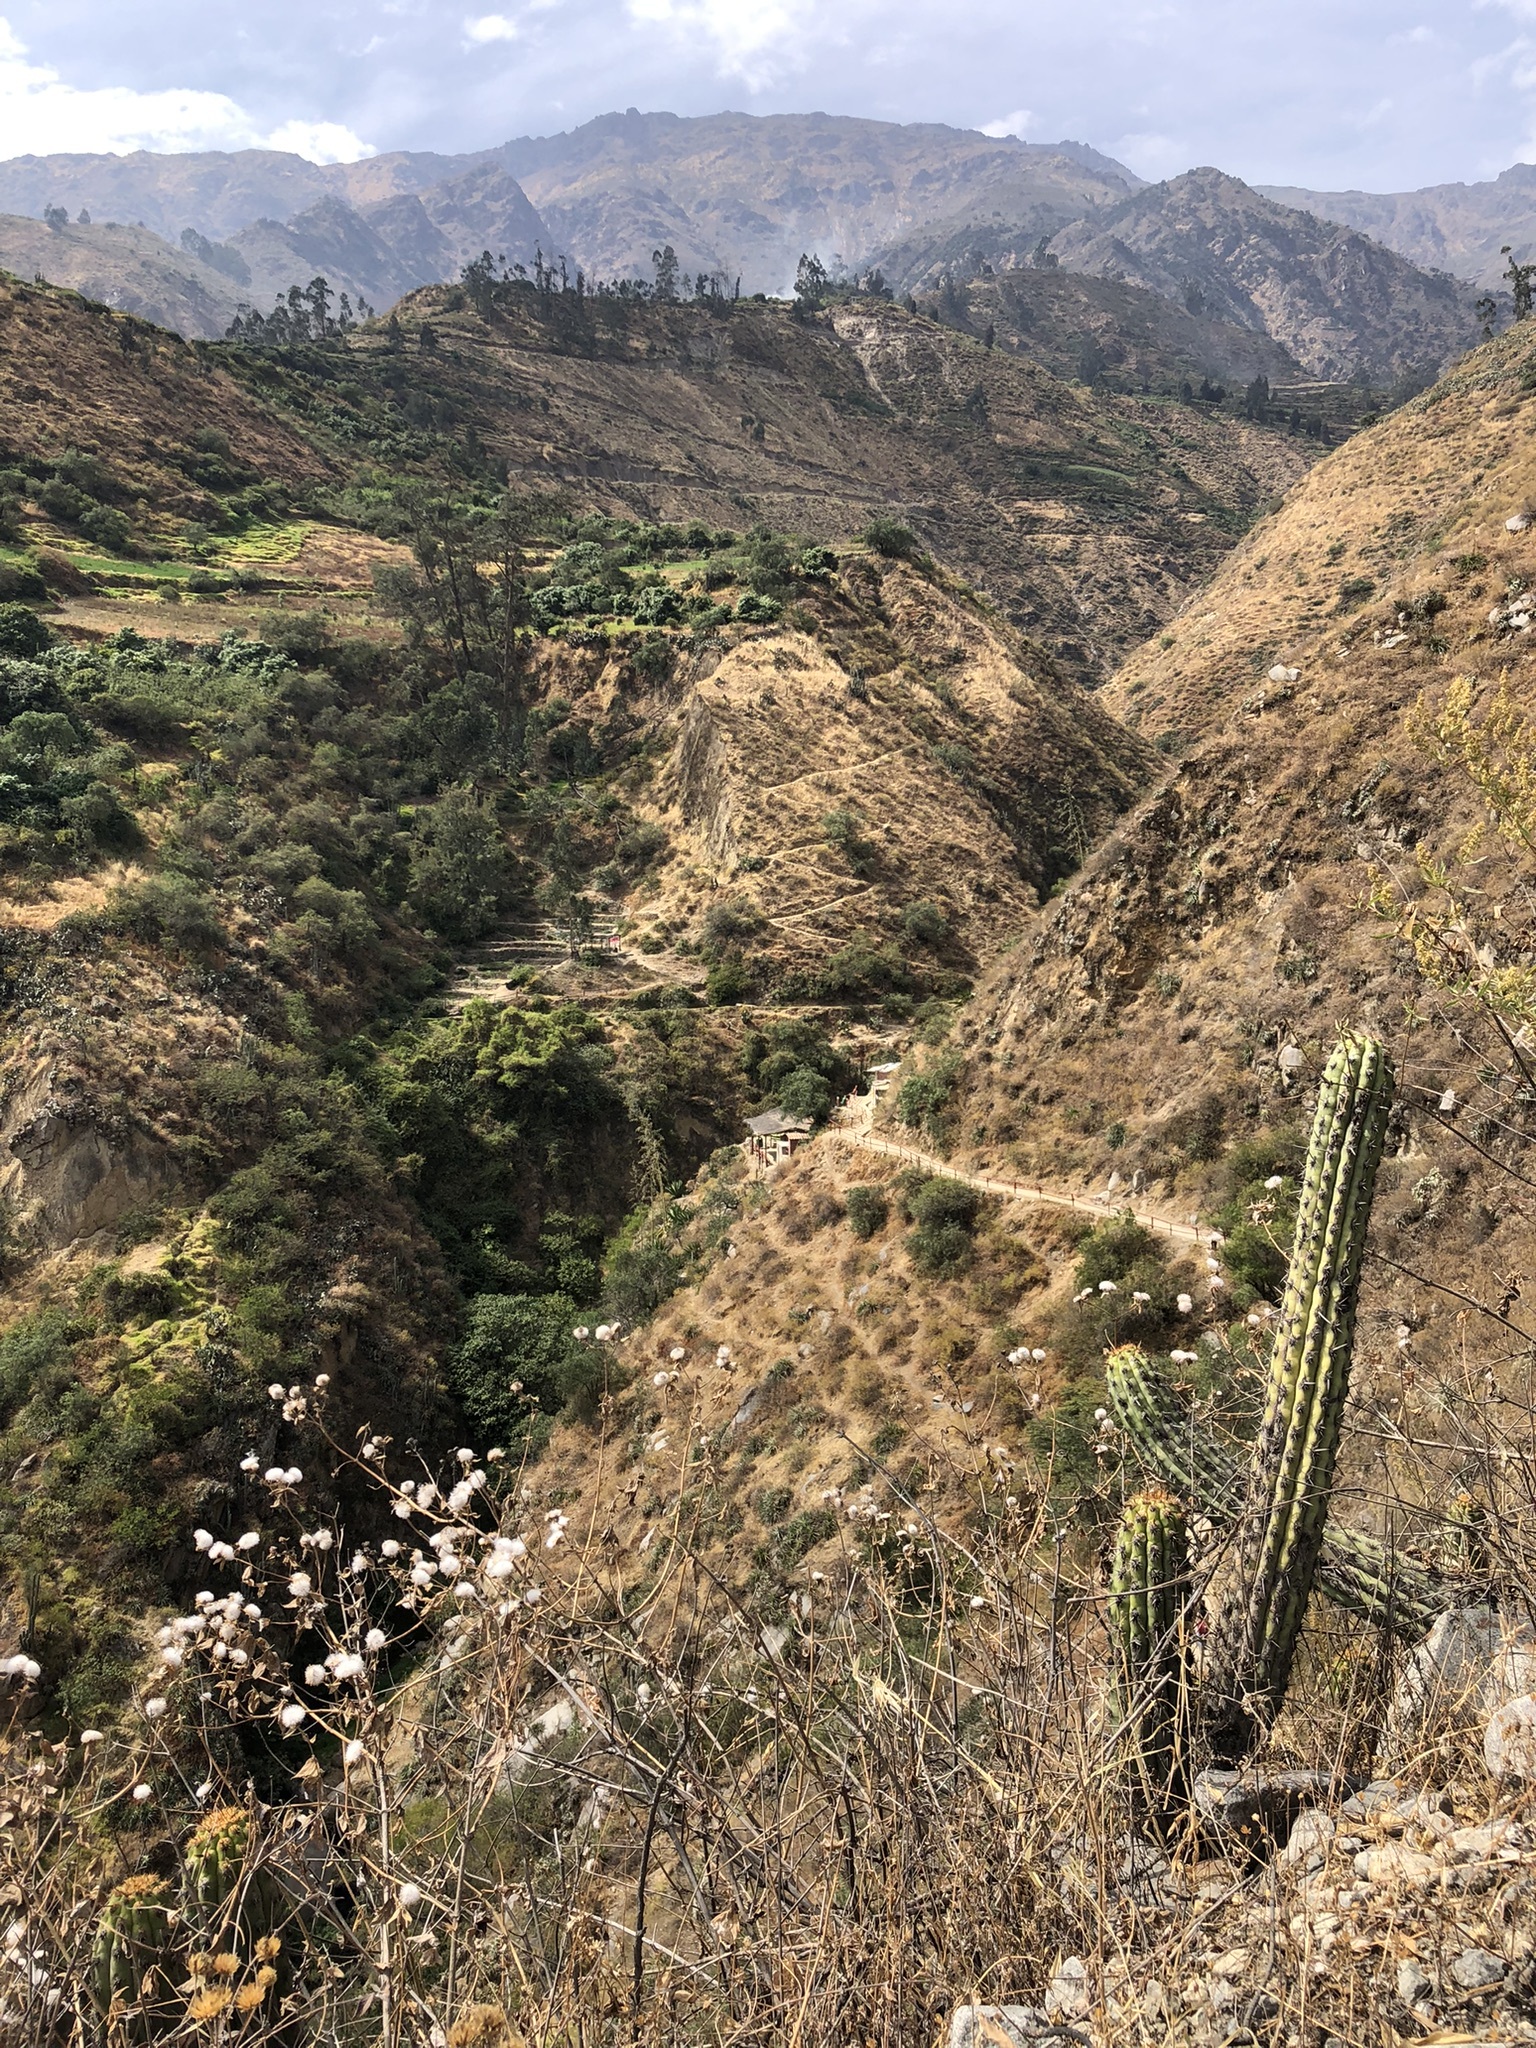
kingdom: Plantae
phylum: Tracheophyta
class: Magnoliopsida
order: Caryophyllales
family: Cactaceae
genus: Haageocereus
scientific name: Haageocereus acranthus
